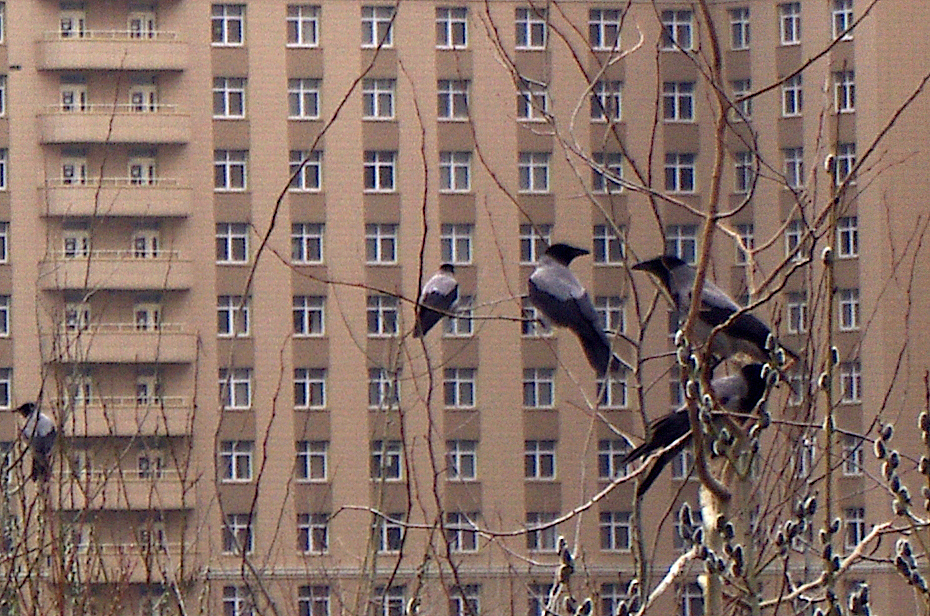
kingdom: Animalia
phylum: Chordata
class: Aves
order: Passeriformes
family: Corvidae
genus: Corvus
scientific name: Corvus cornix
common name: Hooded crow
